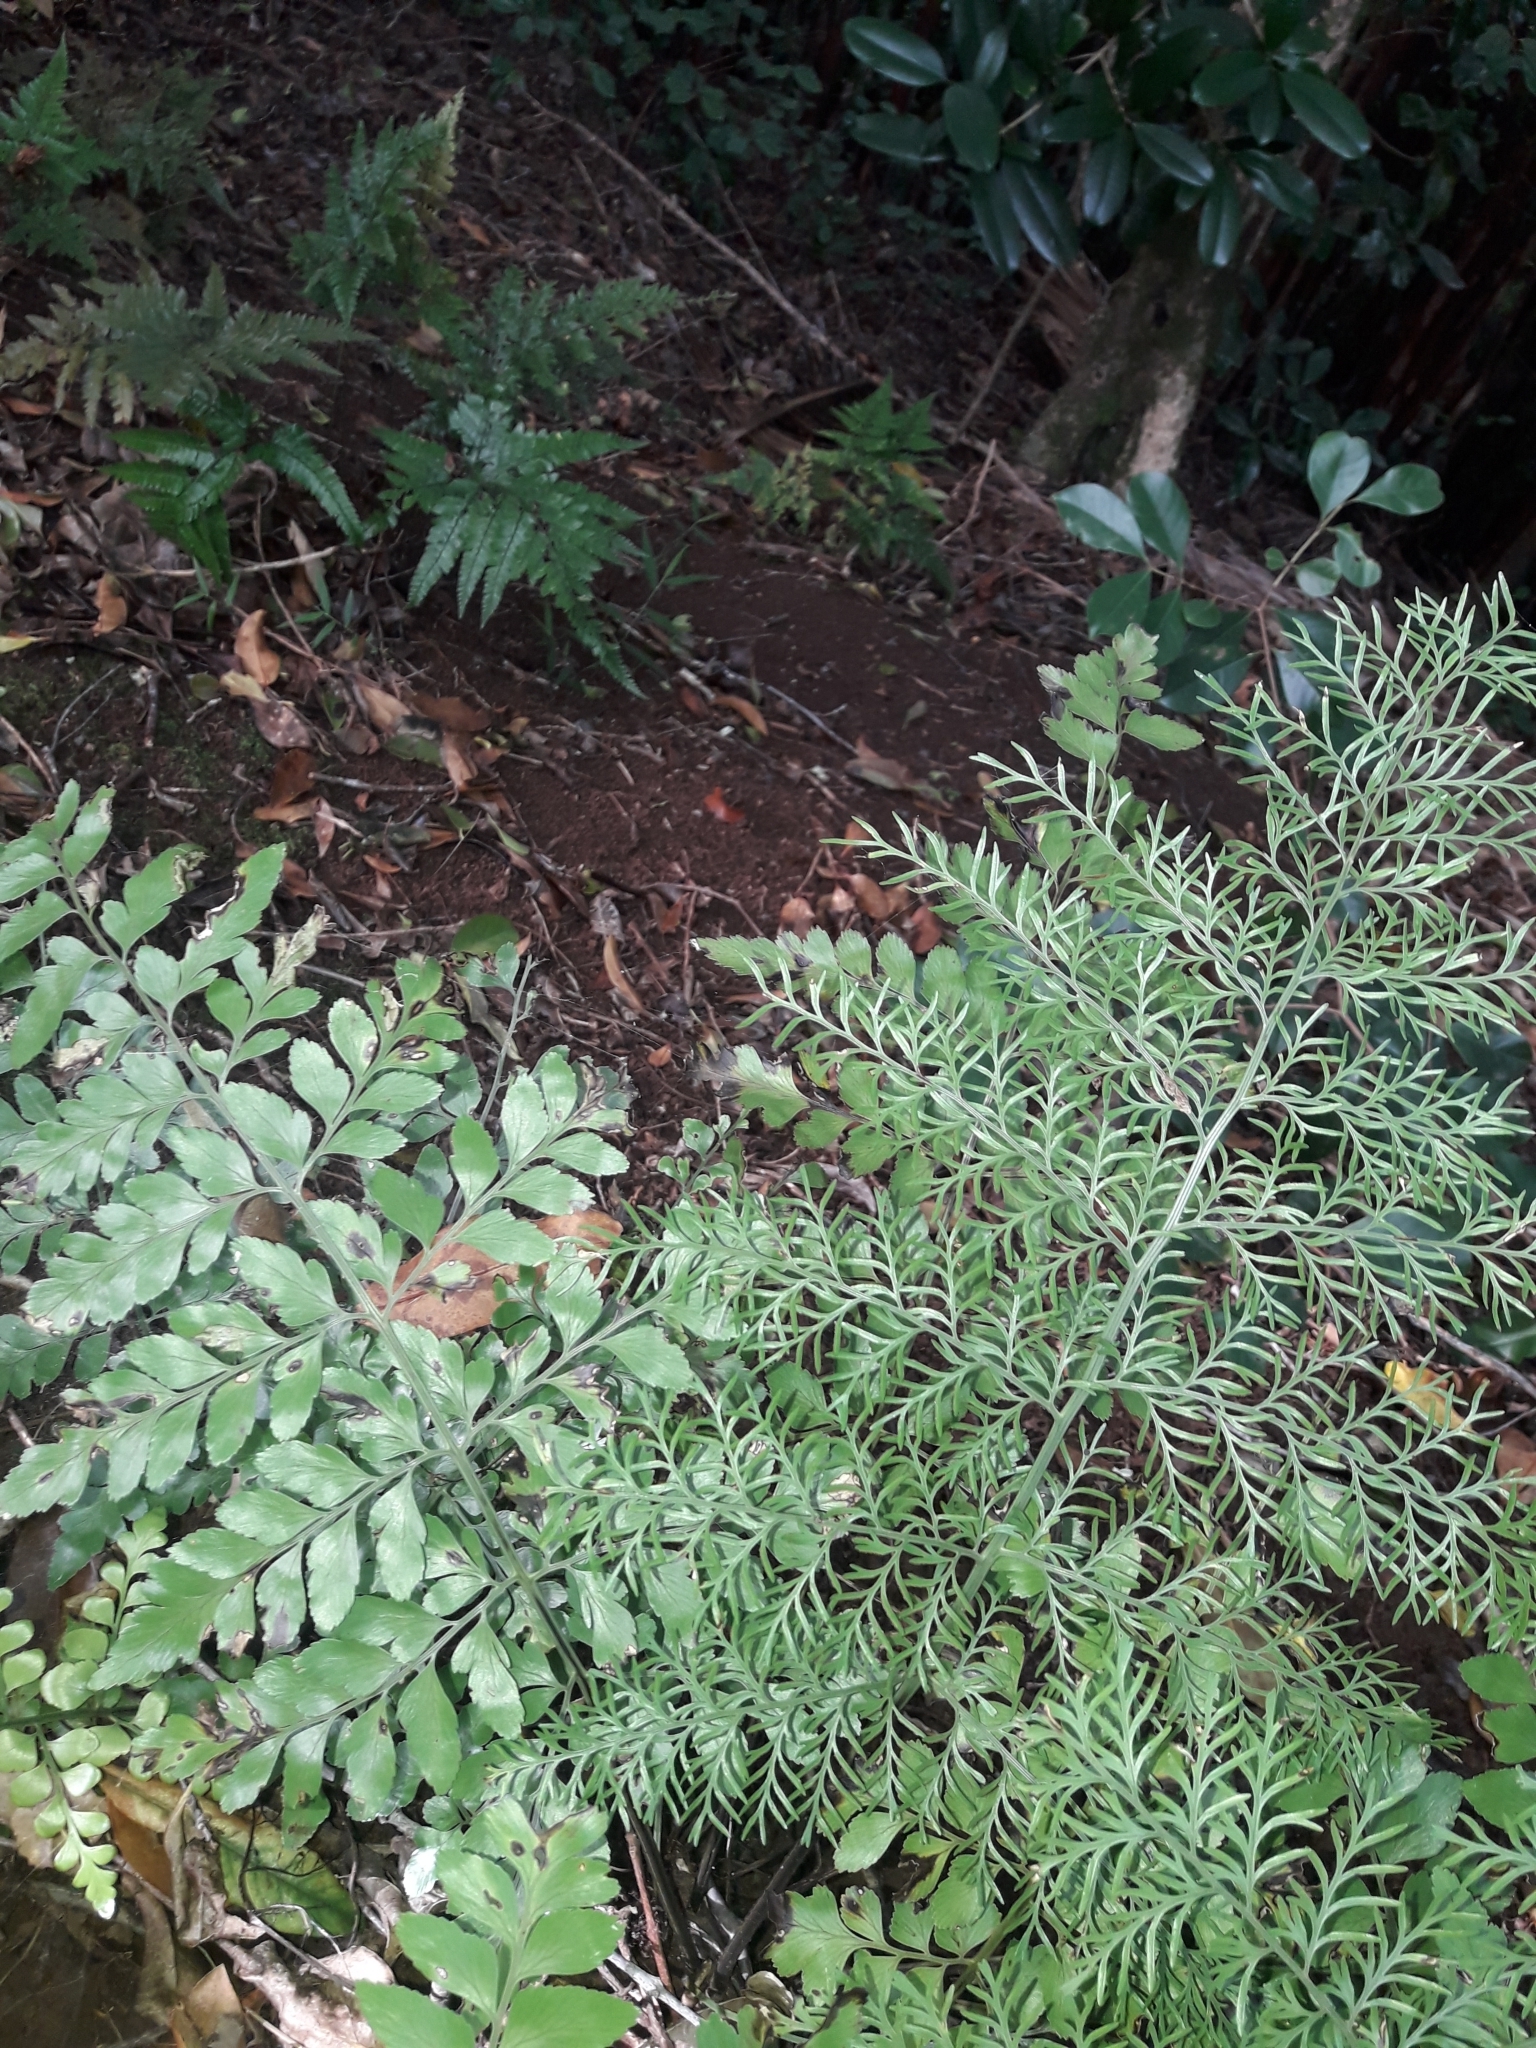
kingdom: Plantae
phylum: Tracheophyta
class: Polypodiopsida
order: Polypodiales
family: Aspleniaceae
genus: Asplenium
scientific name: Asplenium dimorphum
